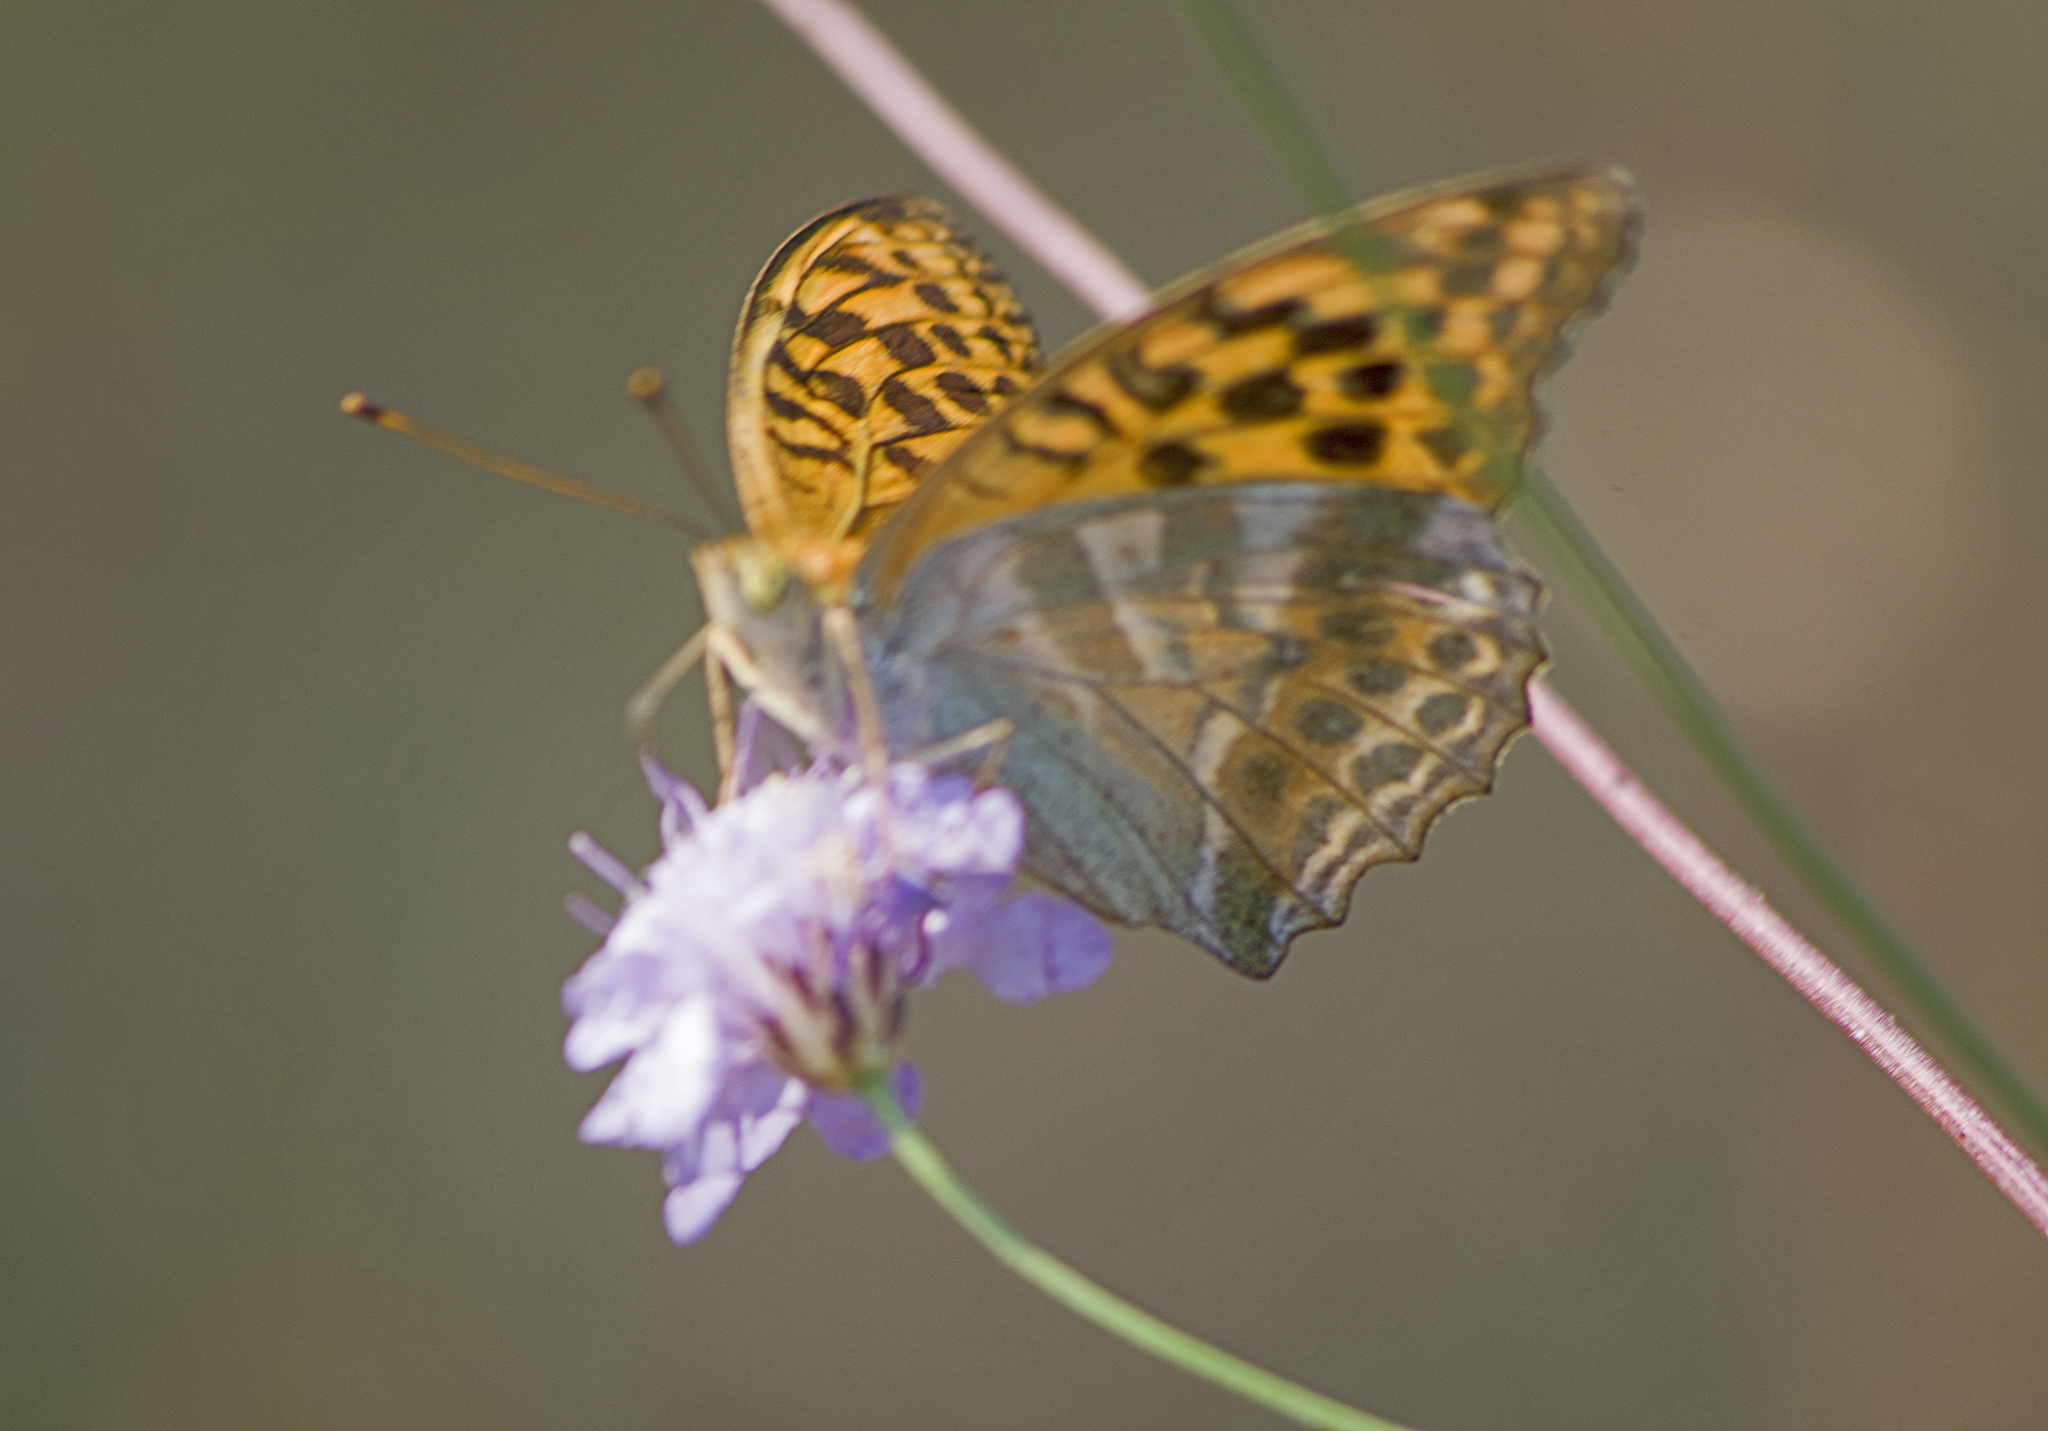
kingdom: Animalia
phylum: Arthropoda
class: Insecta
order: Lepidoptera
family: Nymphalidae
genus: Argynnis
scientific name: Argynnis paphia
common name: Silver-washed fritillary
